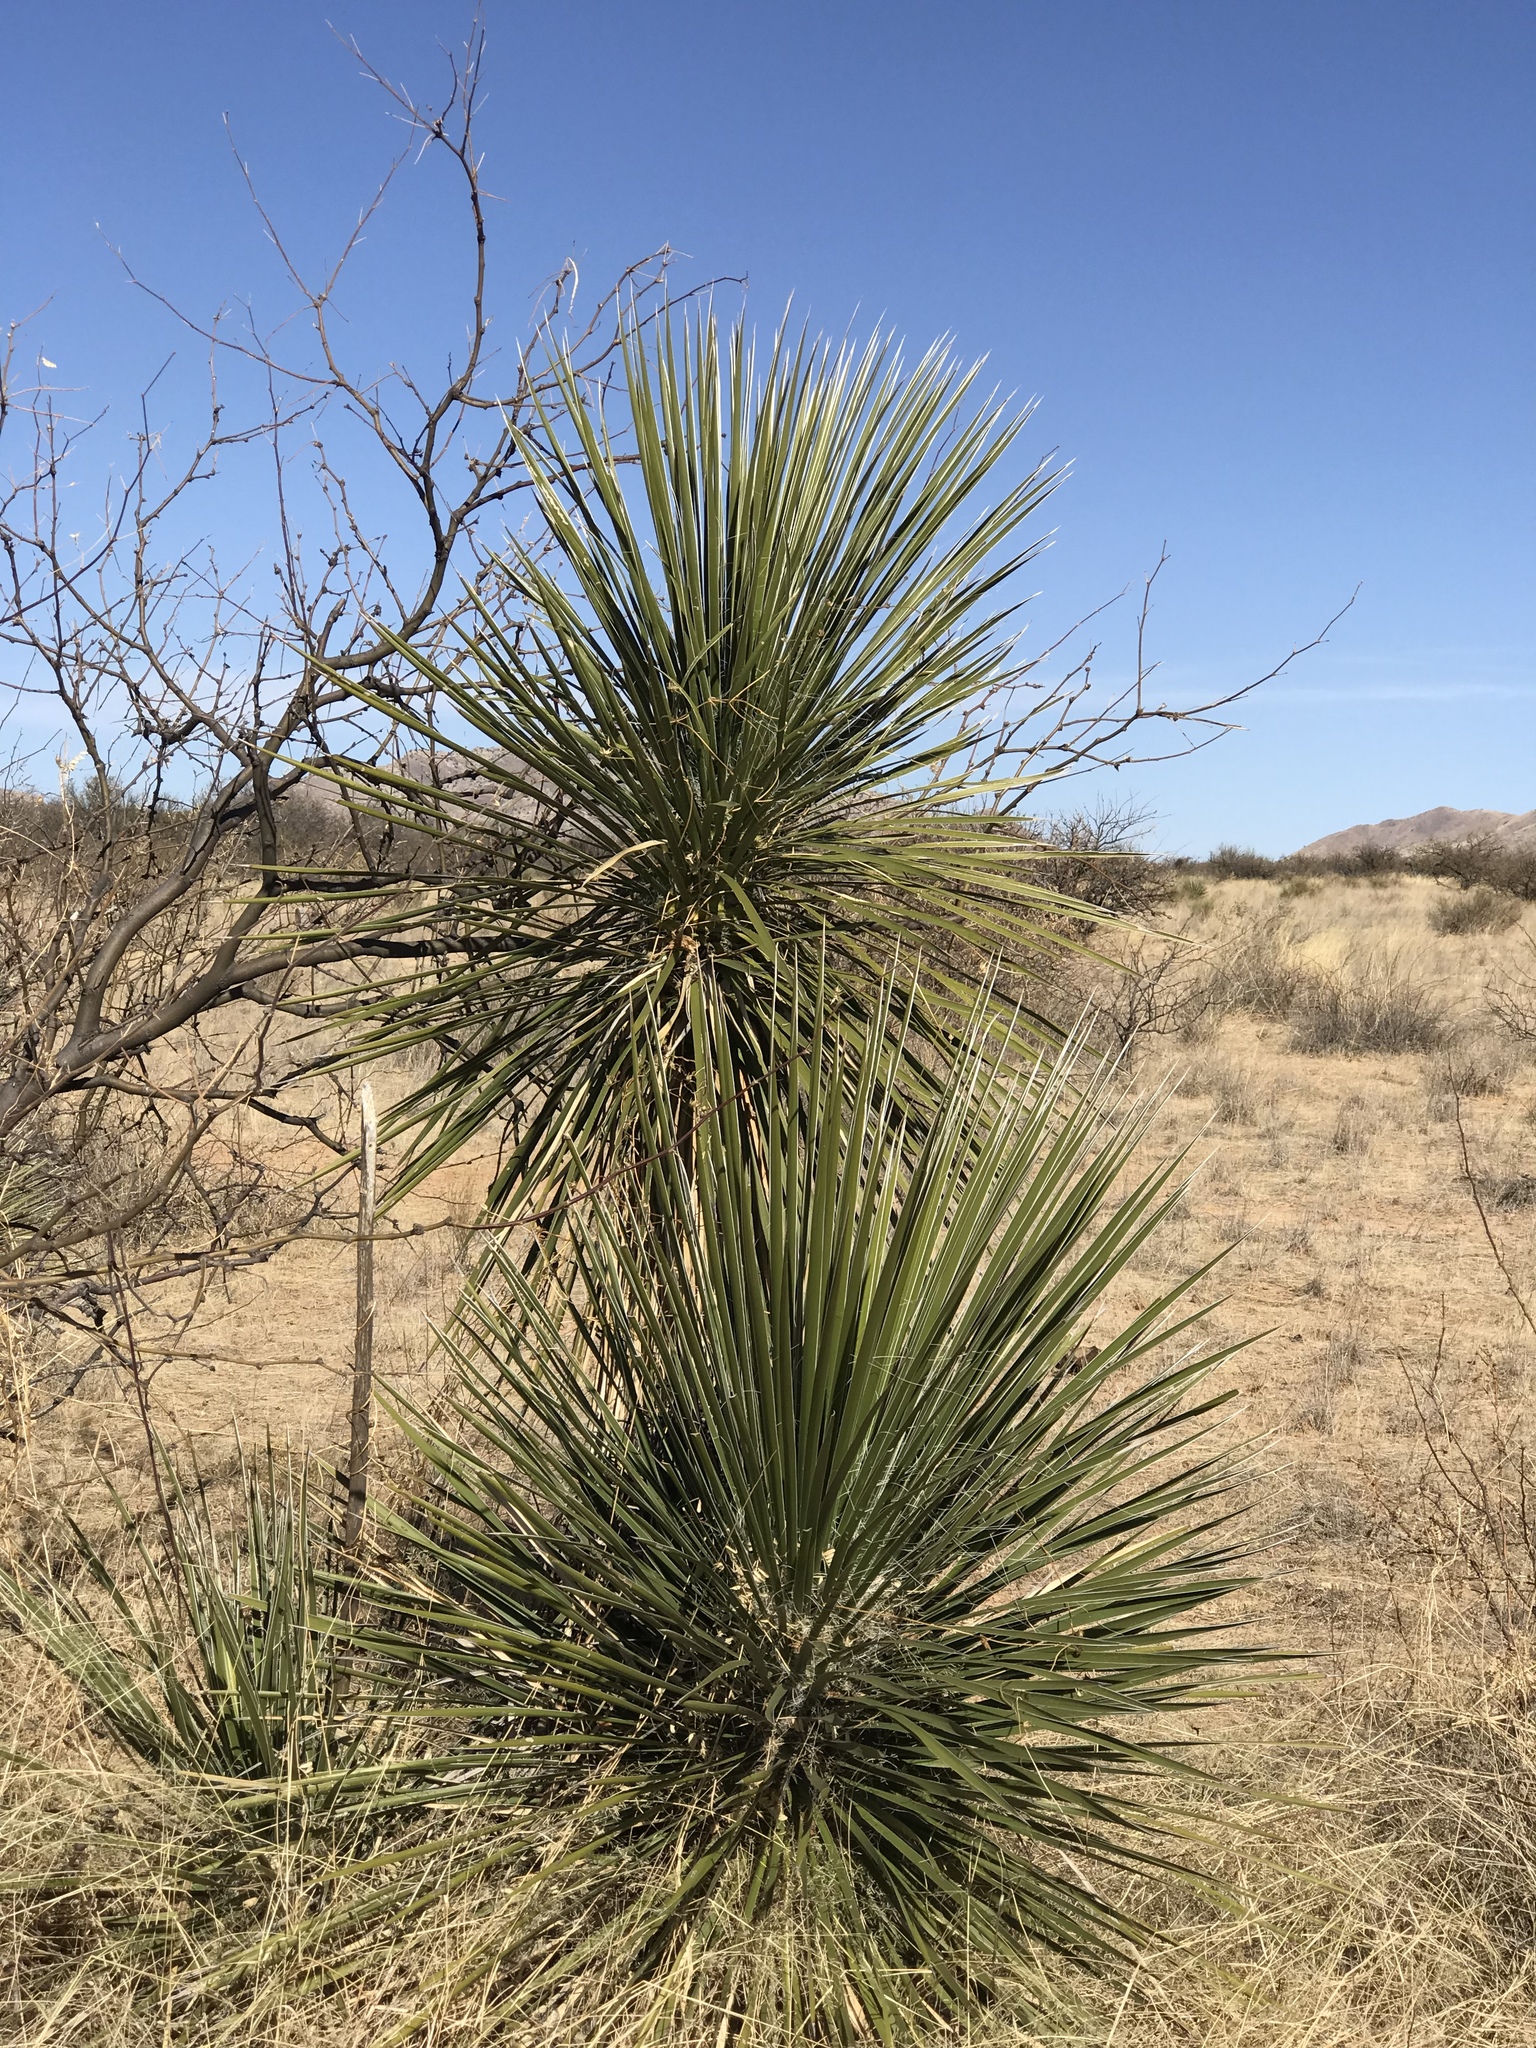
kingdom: Plantae
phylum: Tracheophyta
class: Liliopsida
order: Asparagales
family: Asparagaceae
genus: Yucca
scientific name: Yucca elata
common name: Palmella
